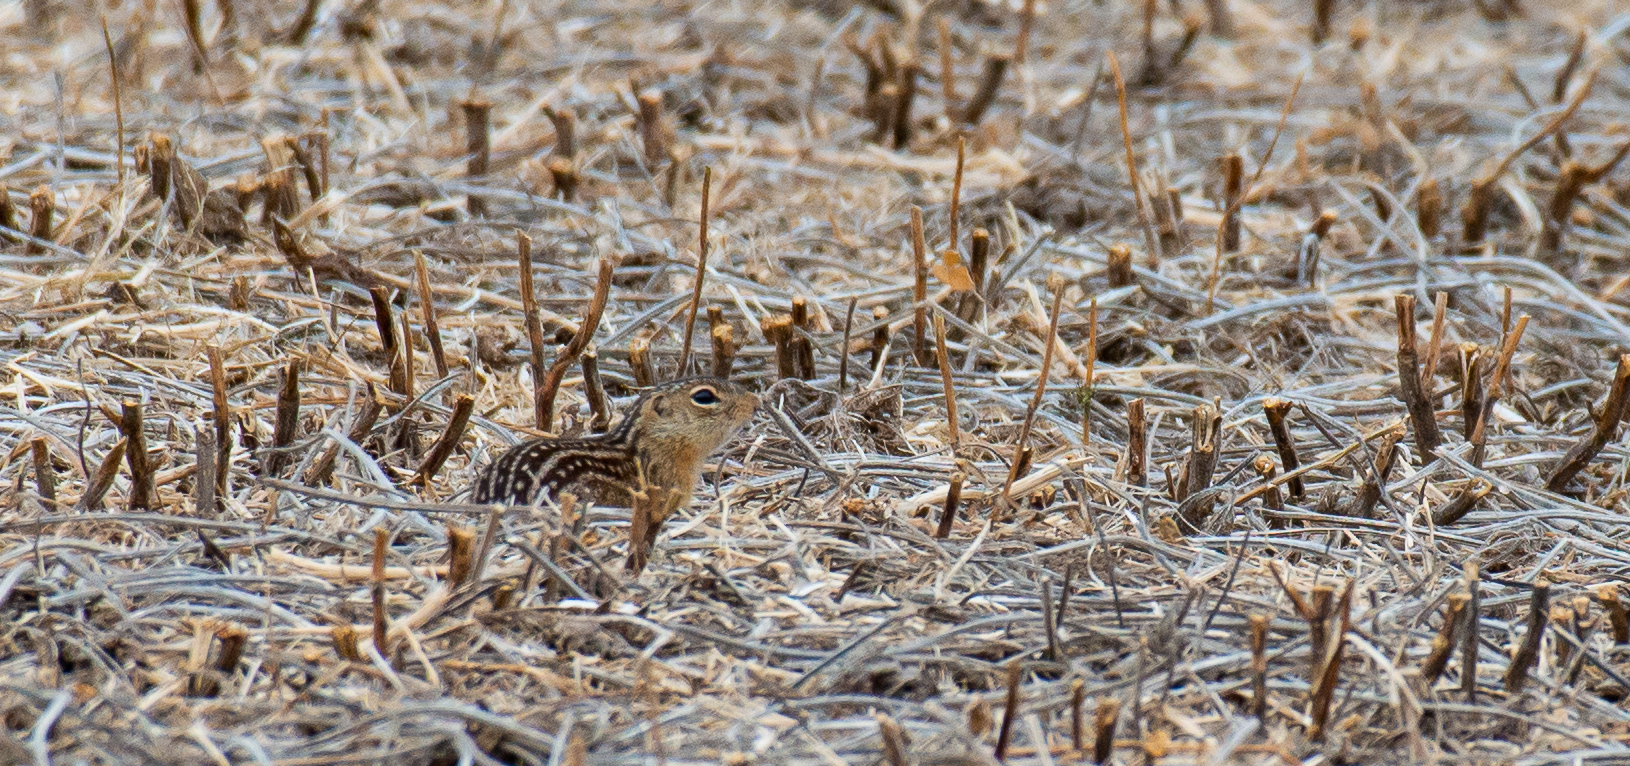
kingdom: Animalia
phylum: Chordata
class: Mammalia
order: Rodentia
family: Sciuridae
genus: Ictidomys
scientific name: Ictidomys tridecemlineatus
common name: Thirteen-lined ground squirrel
